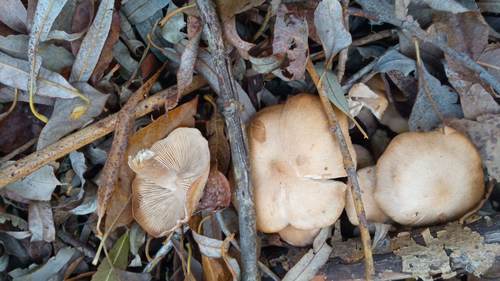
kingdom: Fungi
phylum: Basidiomycota
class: Agaricomycetes
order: Agaricales
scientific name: Agaricales
